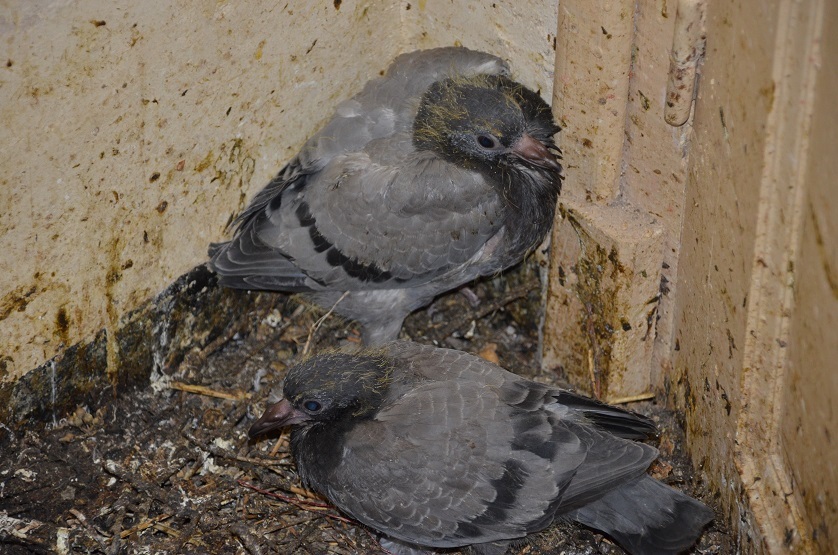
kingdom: Animalia
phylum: Chordata
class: Aves
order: Columbiformes
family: Columbidae
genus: Columba
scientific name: Columba livia
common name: Rock pigeon
